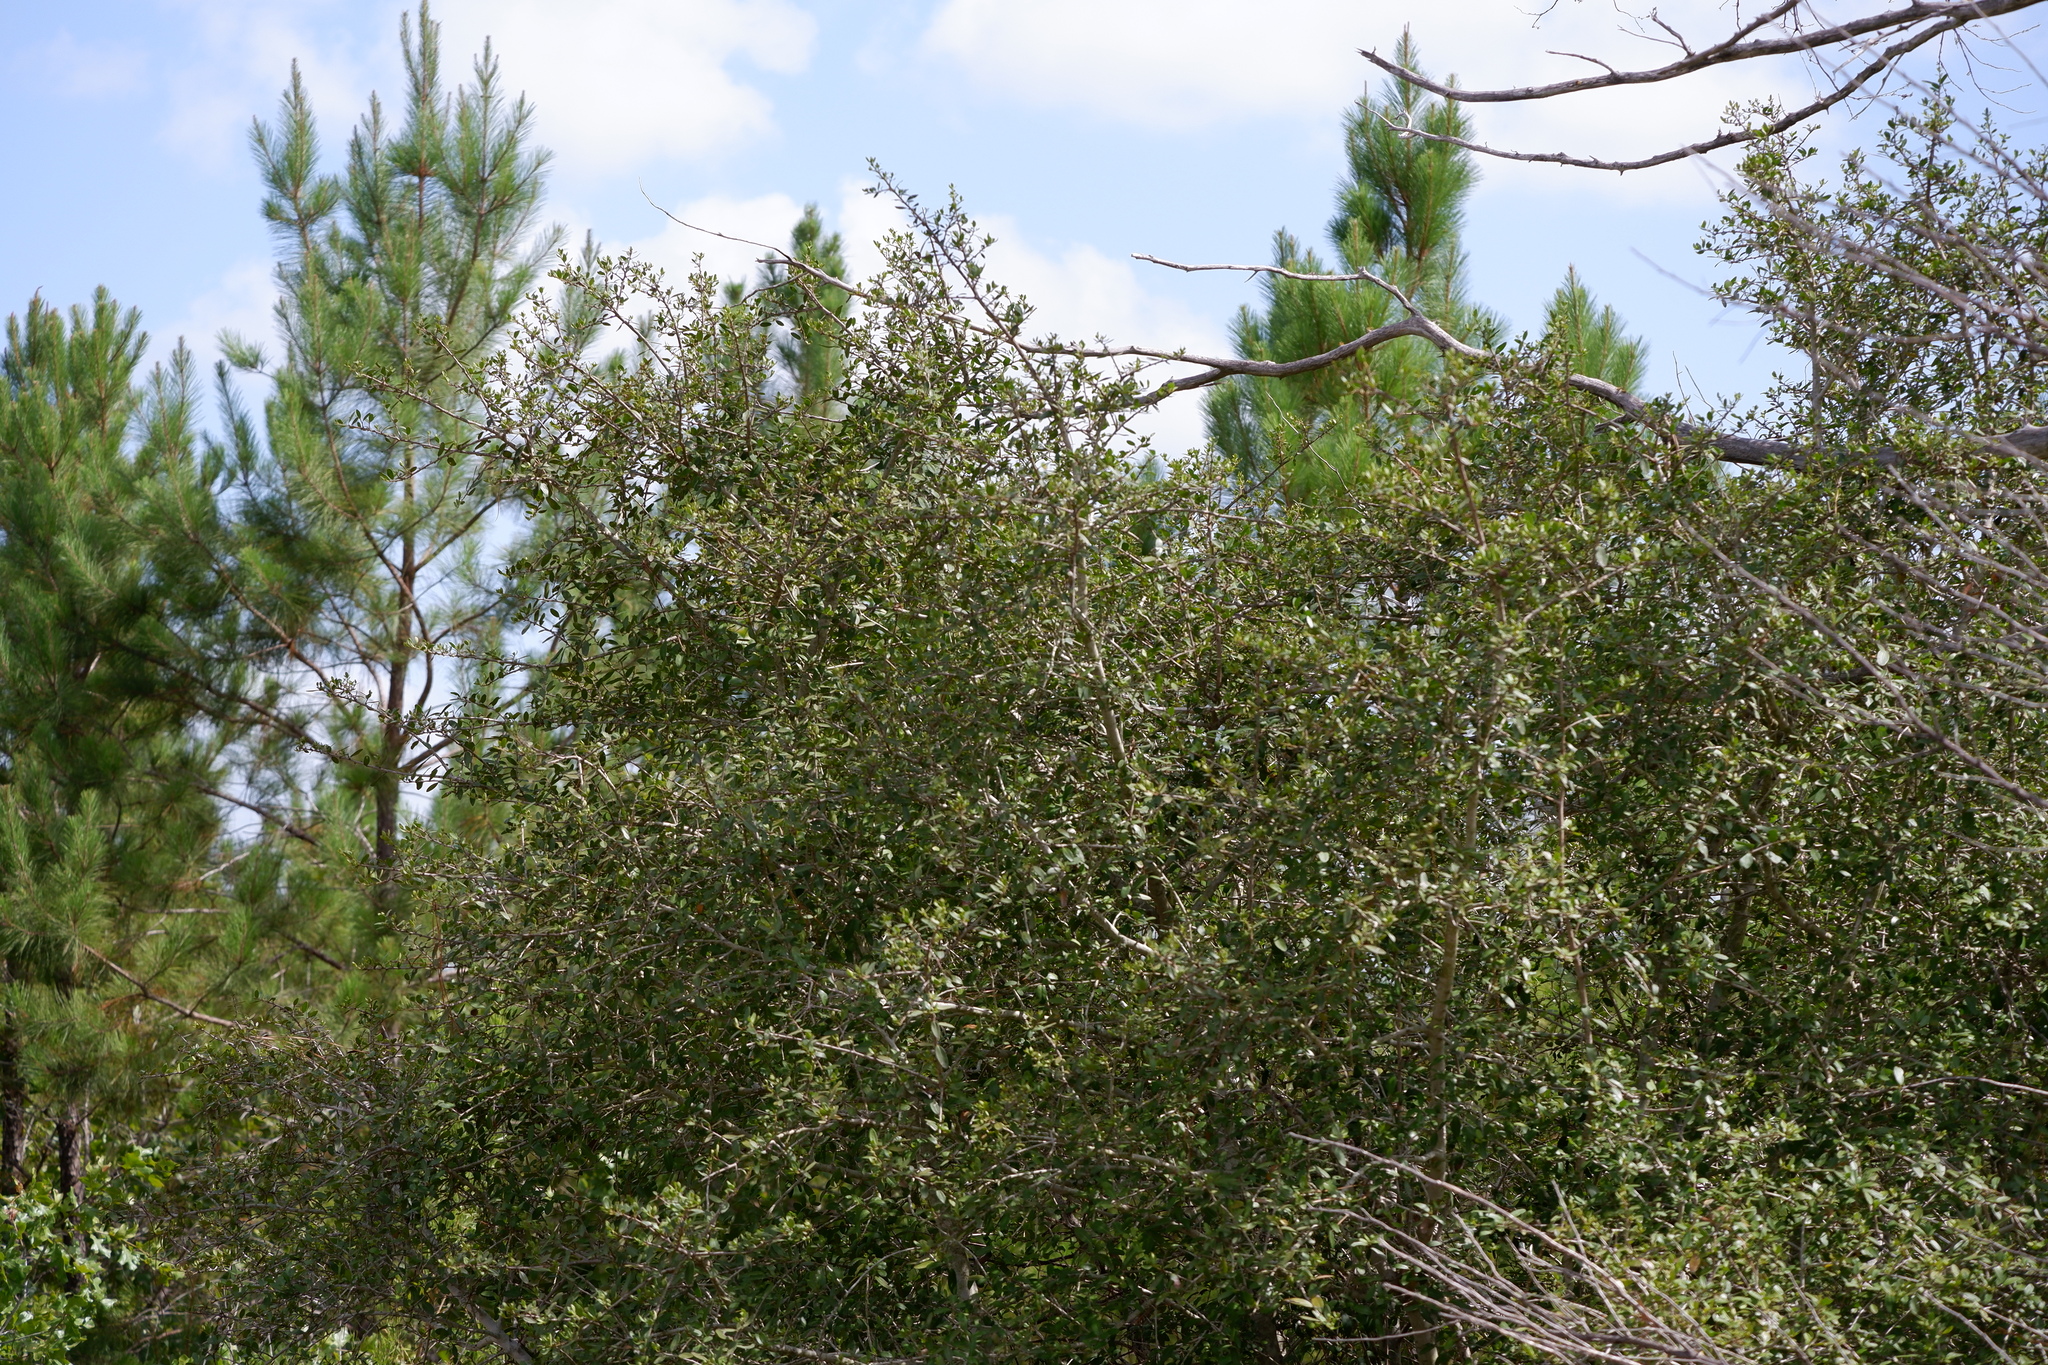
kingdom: Plantae
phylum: Tracheophyta
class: Magnoliopsida
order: Aquifoliales
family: Aquifoliaceae
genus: Ilex
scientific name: Ilex vomitoria
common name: Yaupon holly
